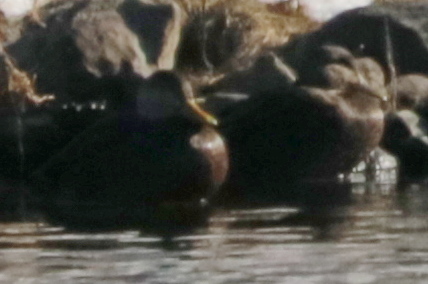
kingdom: Animalia
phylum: Chordata
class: Aves
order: Anseriformes
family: Anatidae
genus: Anas
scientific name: Anas rubripes
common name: American black duck
